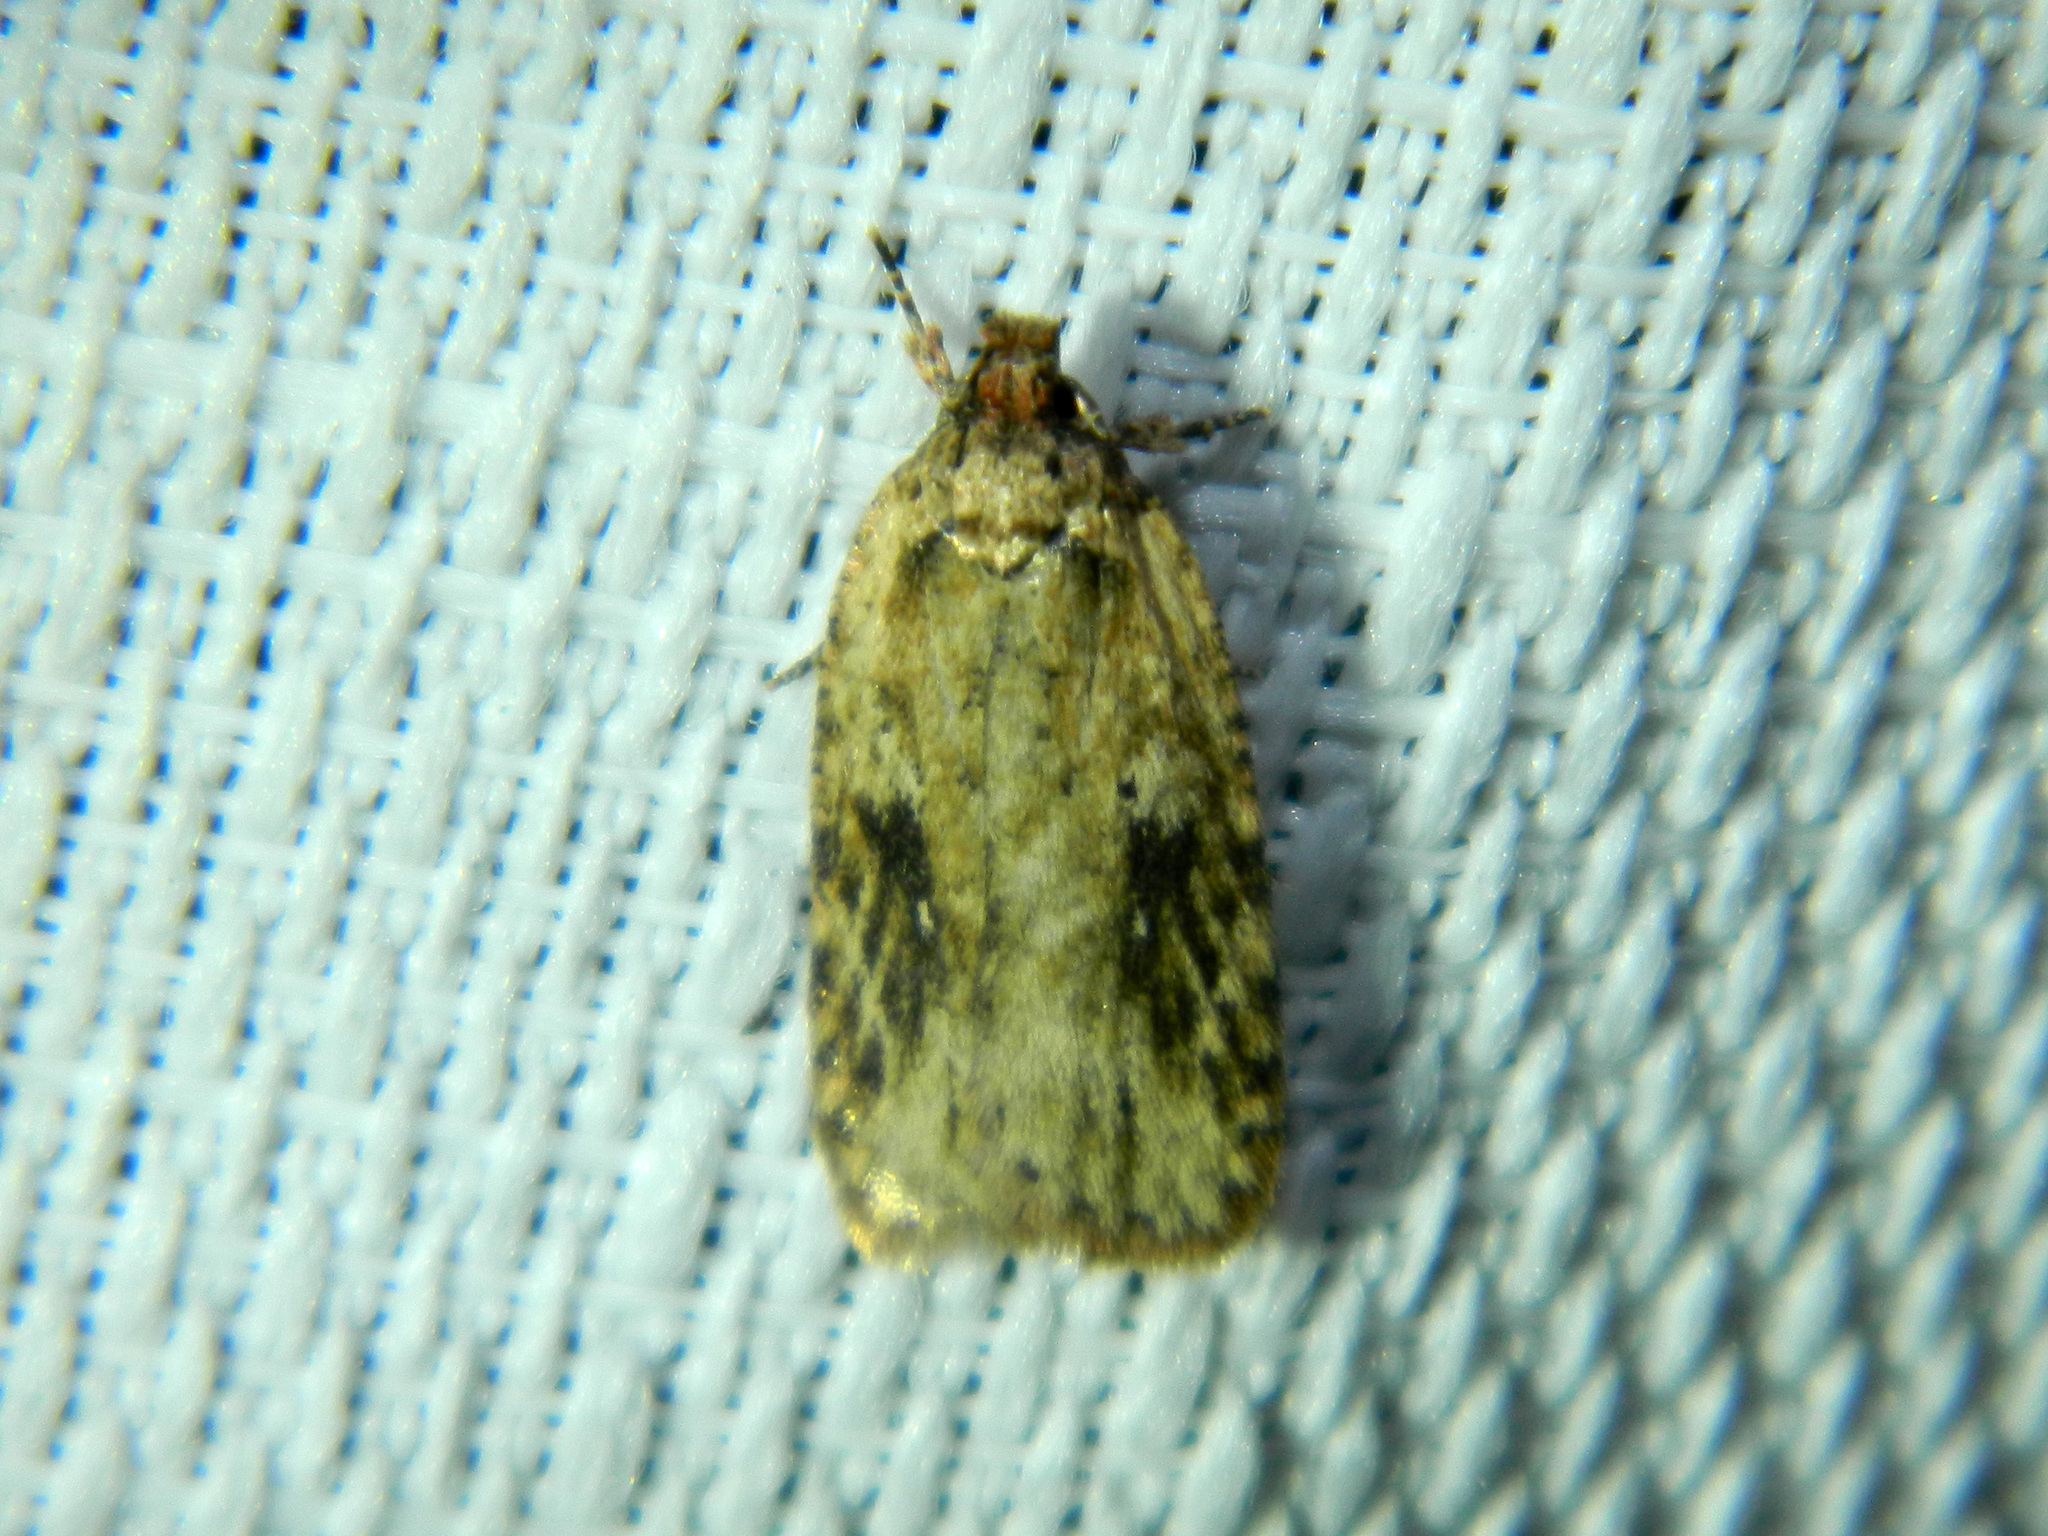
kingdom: Animalia
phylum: Arthropoda
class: Insecta
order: Lepidoptera
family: Depressariidae
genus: Agonopterix
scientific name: Agonopterix pulvipennella
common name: Goldenrod leafffolder
